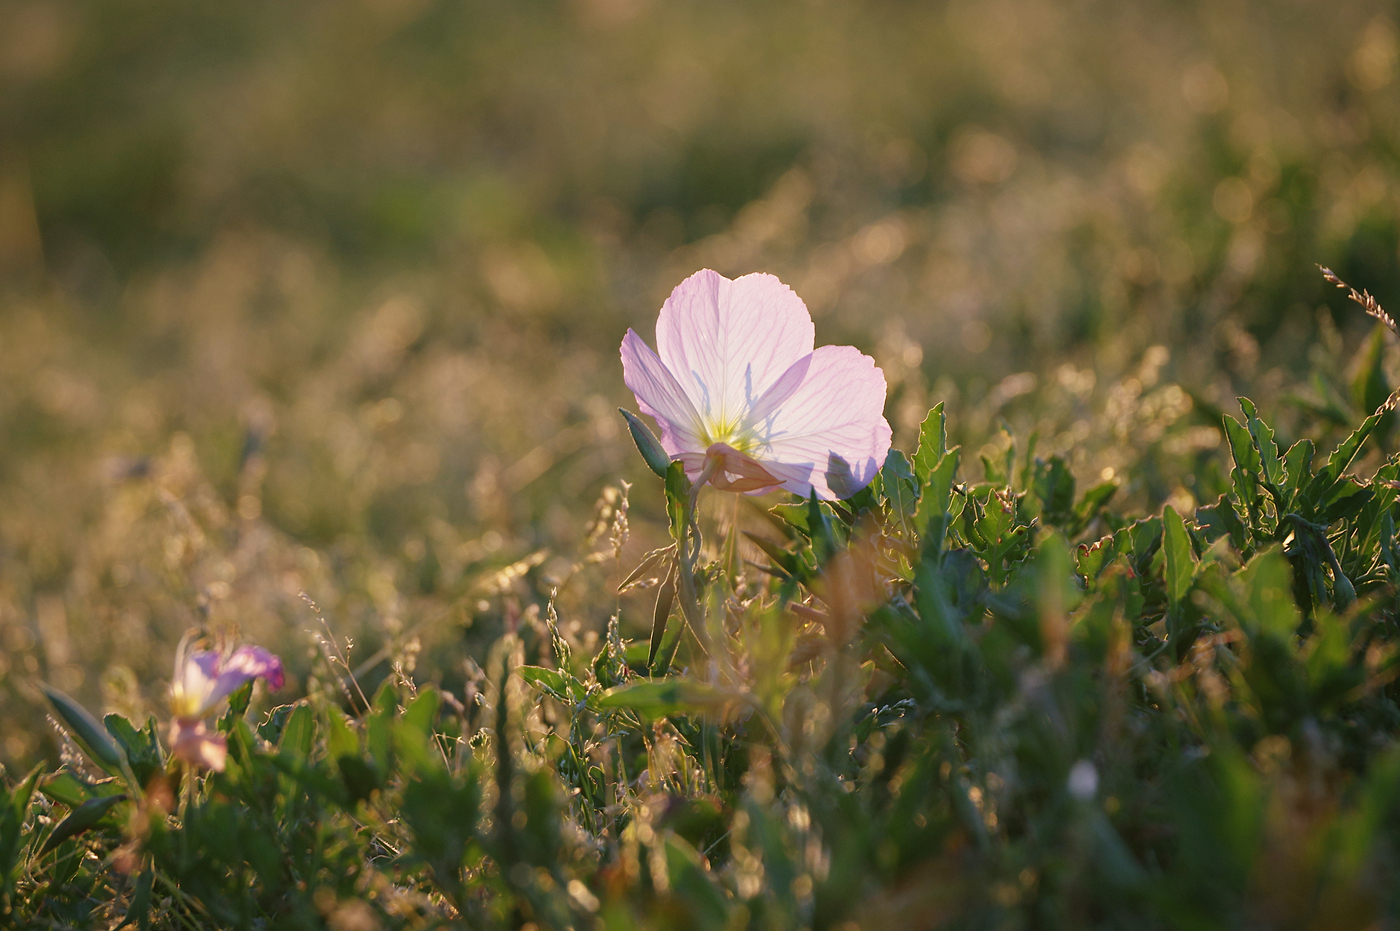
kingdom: Plantae
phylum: Tracheophyta
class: Magnoliopsida
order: Myrtales
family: Onagraceae
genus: Oenothera
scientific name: Oenothera speciosa
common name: White evening-primrose
